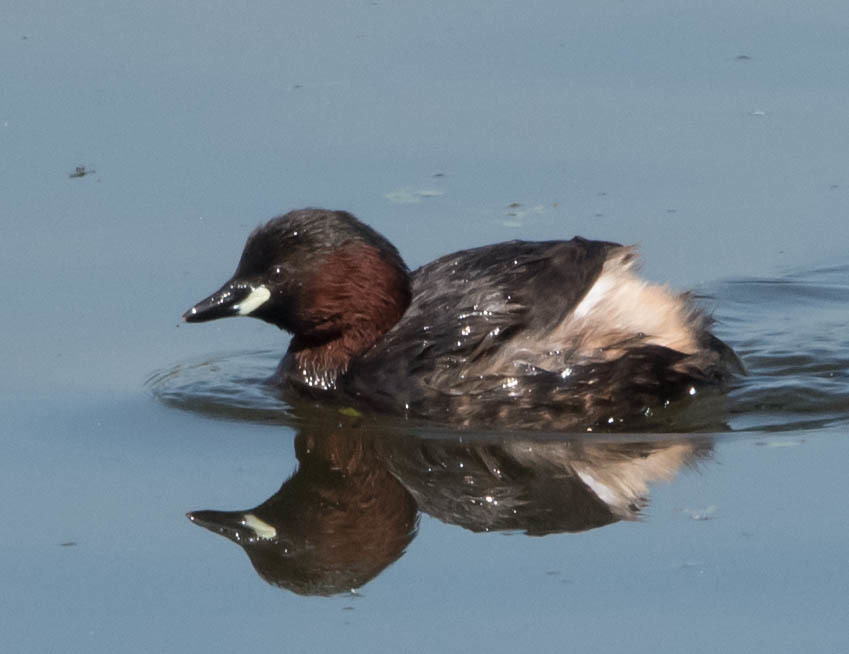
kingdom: Animalia
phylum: Chordata
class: Aves
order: Podicipediformes
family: Podicipedidae
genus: Tachybaptus
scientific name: Tachybaptus ruficollis
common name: Little grebe
